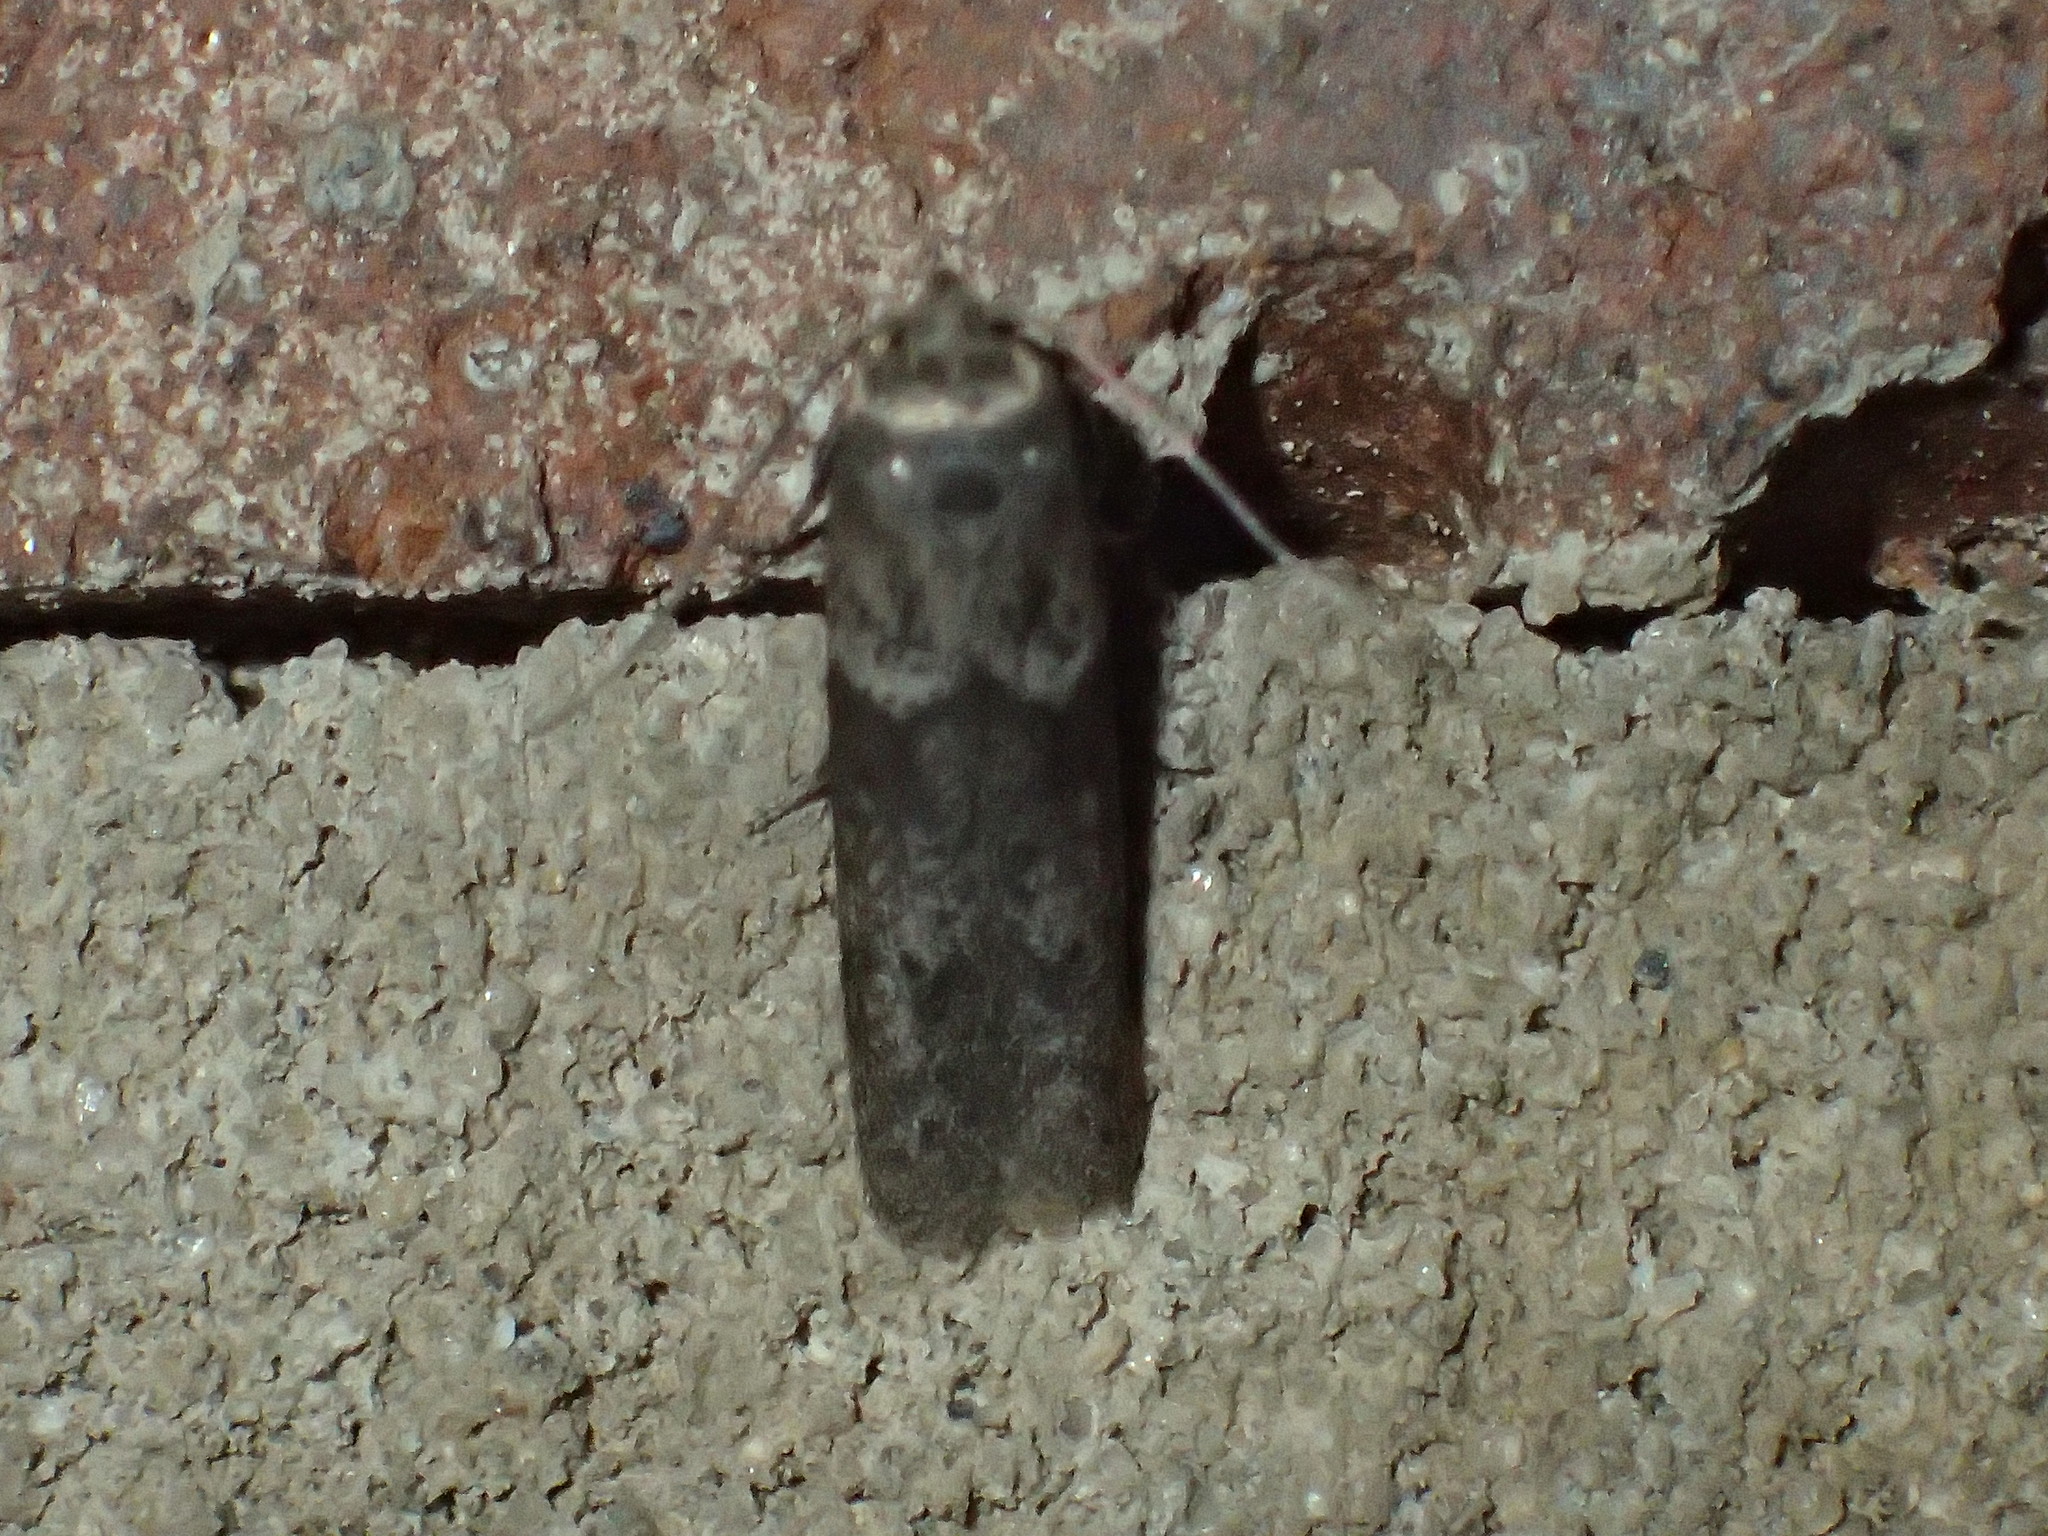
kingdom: Animalia
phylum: Arthropoda
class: Insecta
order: Lepidoptera
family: Blastobasidae
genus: Blastobasis
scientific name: Blastobasis glandulella
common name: Acorn moth
